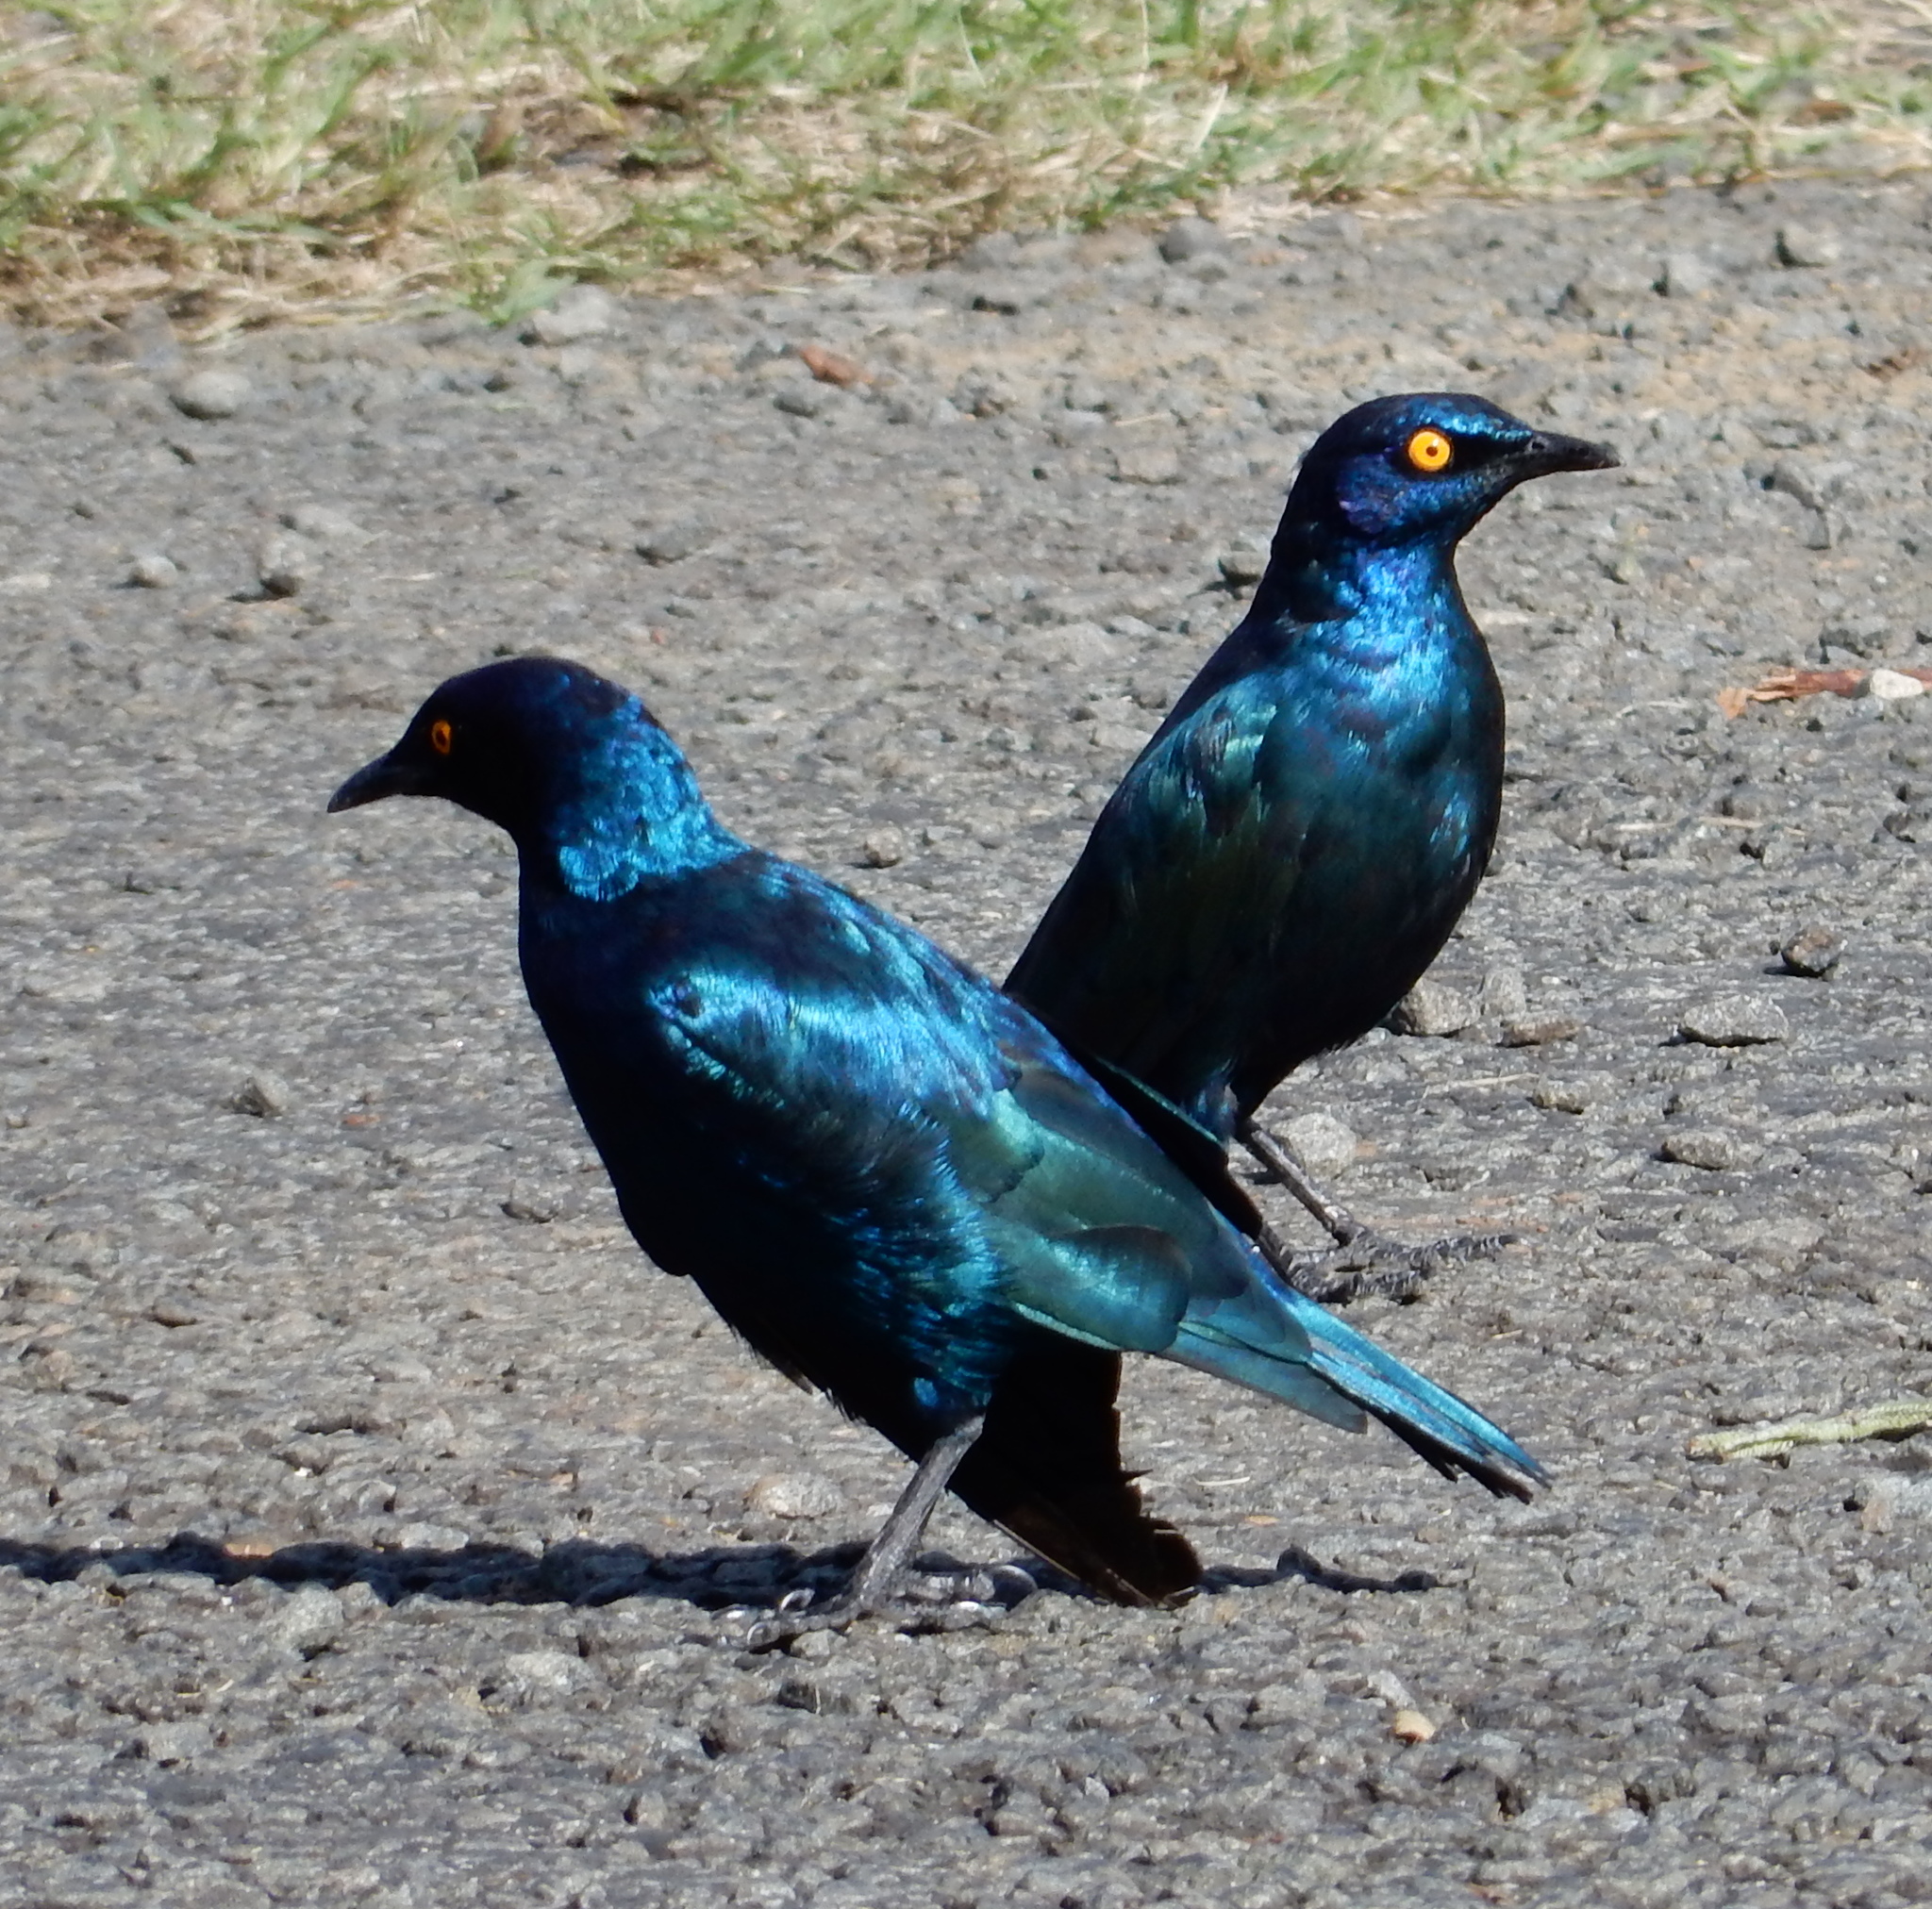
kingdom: Animalia
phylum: Chordata
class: Aves
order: Passeriformes
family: Sturnidae
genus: Lamprotornis
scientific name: Lamprotornis nitens
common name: Cape starling
